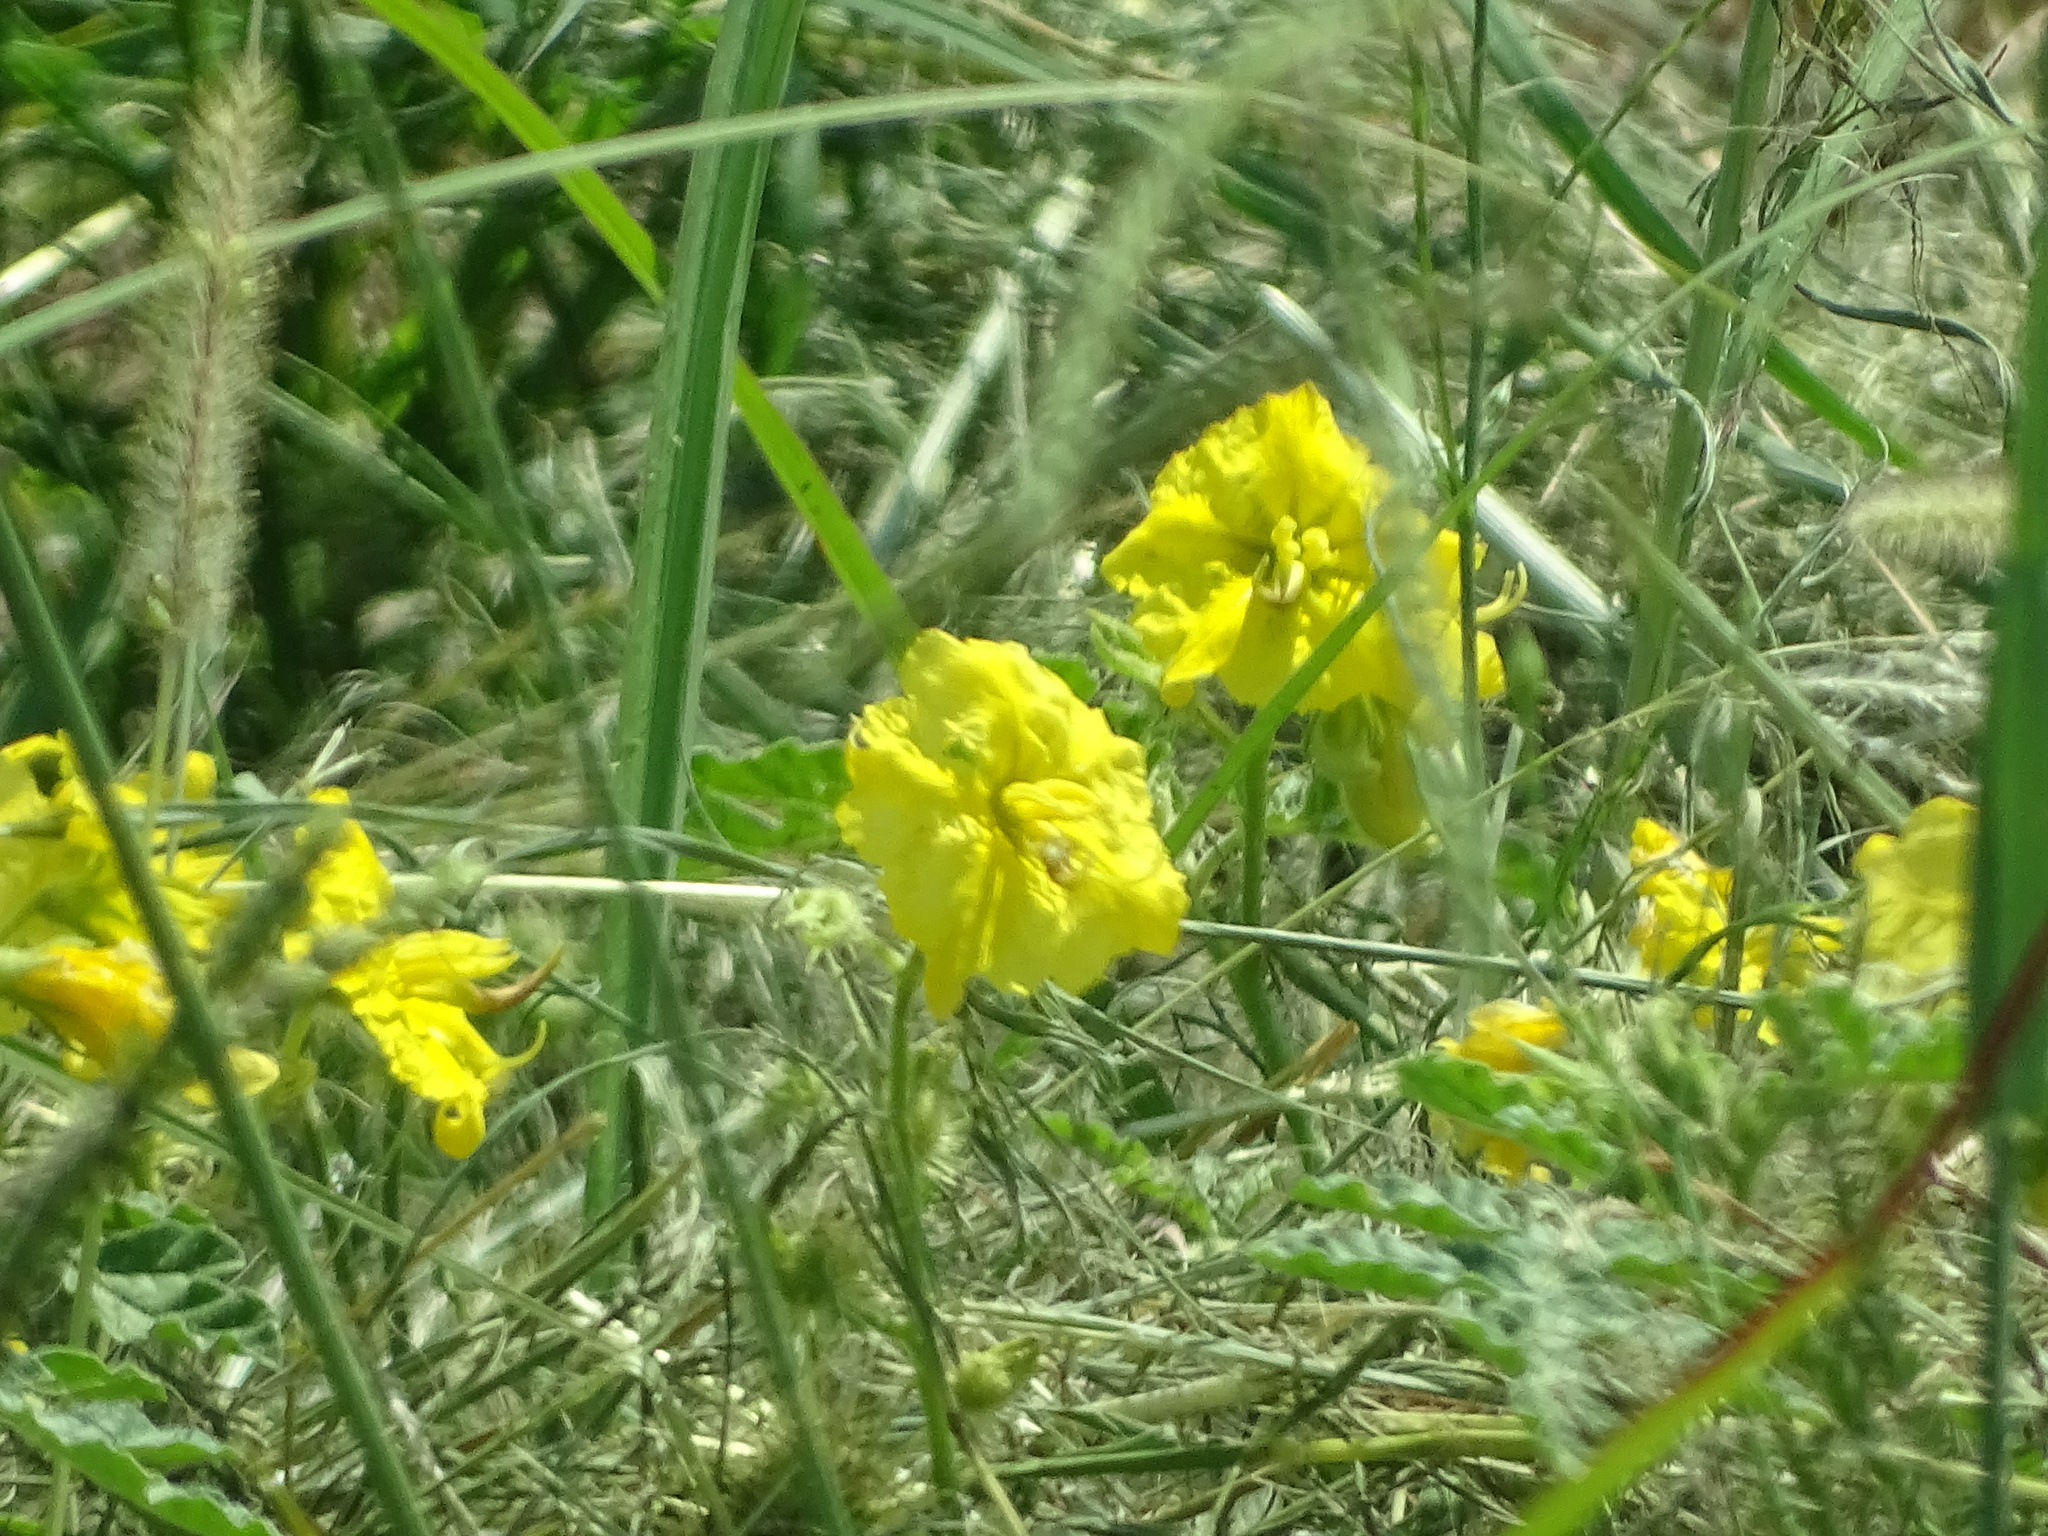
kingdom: Plantae
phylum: Tracheophyta
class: Magnoliopsida
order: Solanales
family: Solanaceae
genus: Solanum
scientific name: Solanum angustifolium
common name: Buffalobur nightshade
